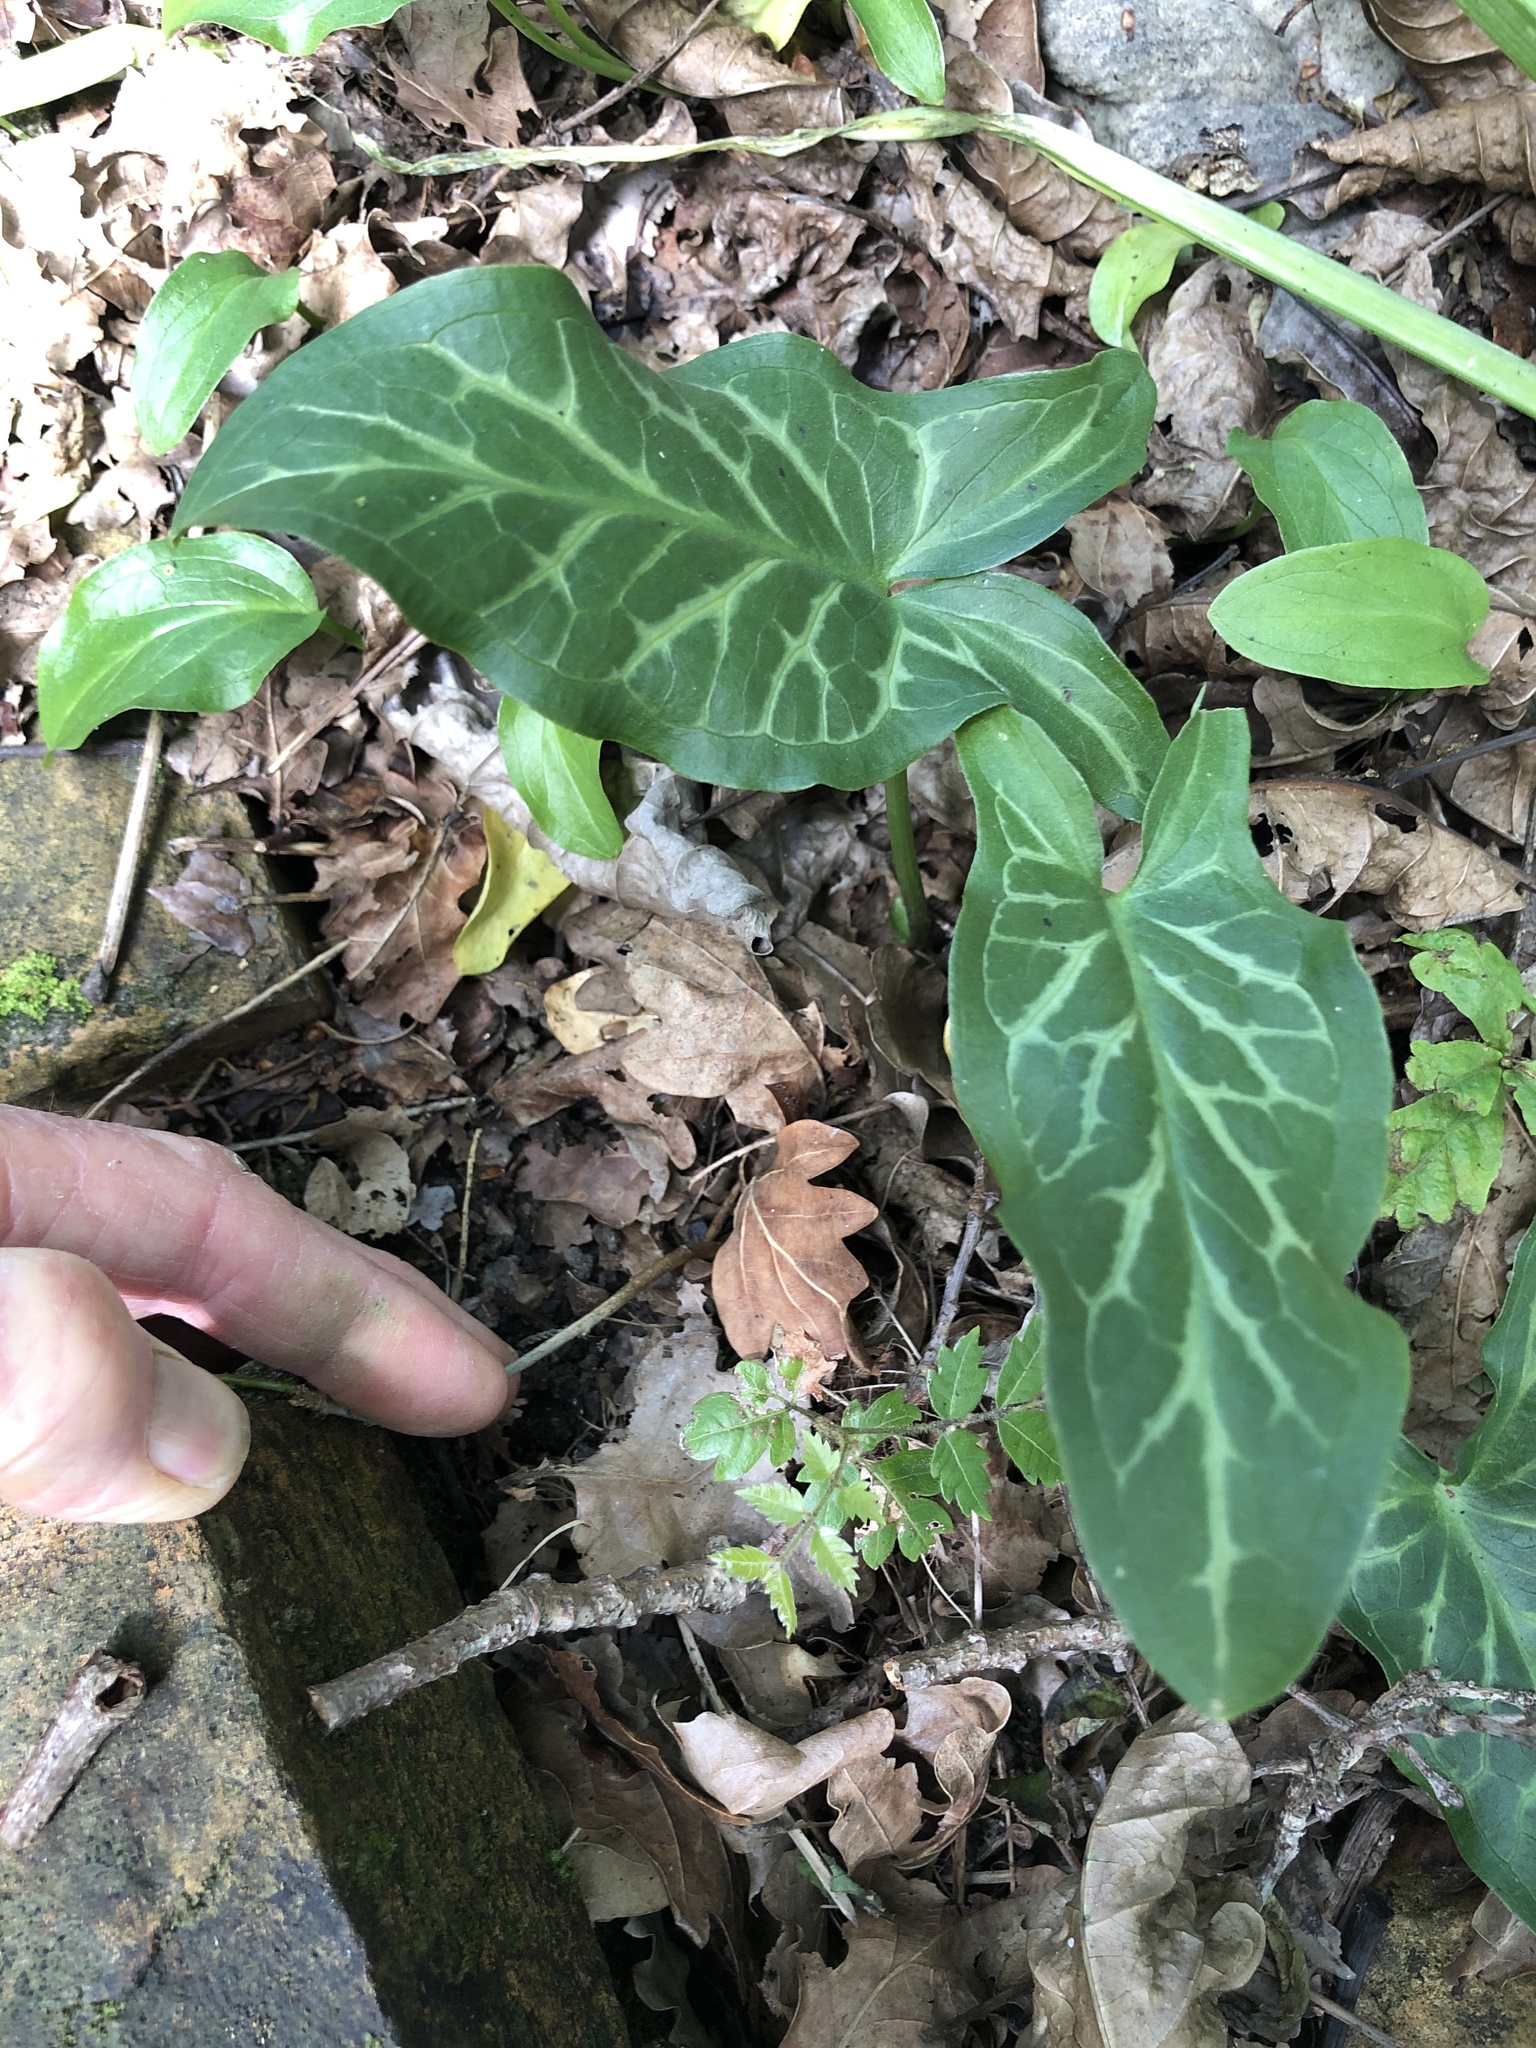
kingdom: Plantae
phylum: Tracheophyta
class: Liliopsida
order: Alismatales
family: Araceae
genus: Arum
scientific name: Arum italicum
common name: Italian lords-and-ladies
